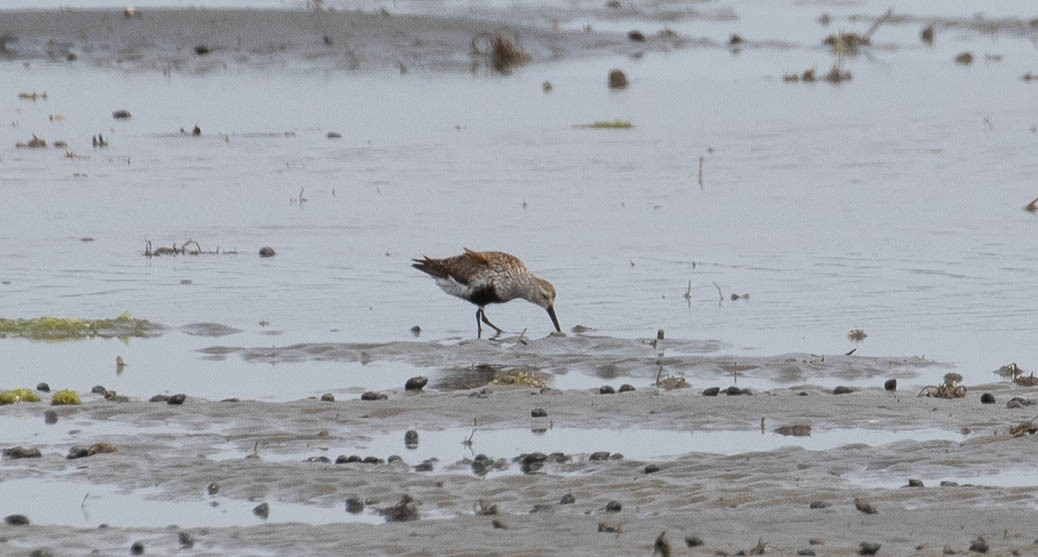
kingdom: Animalia
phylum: Chordata
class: Aves
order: Charadriiformes
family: Scolopacidae
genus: Calidris
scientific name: Calidris alpina
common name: Dunlin
